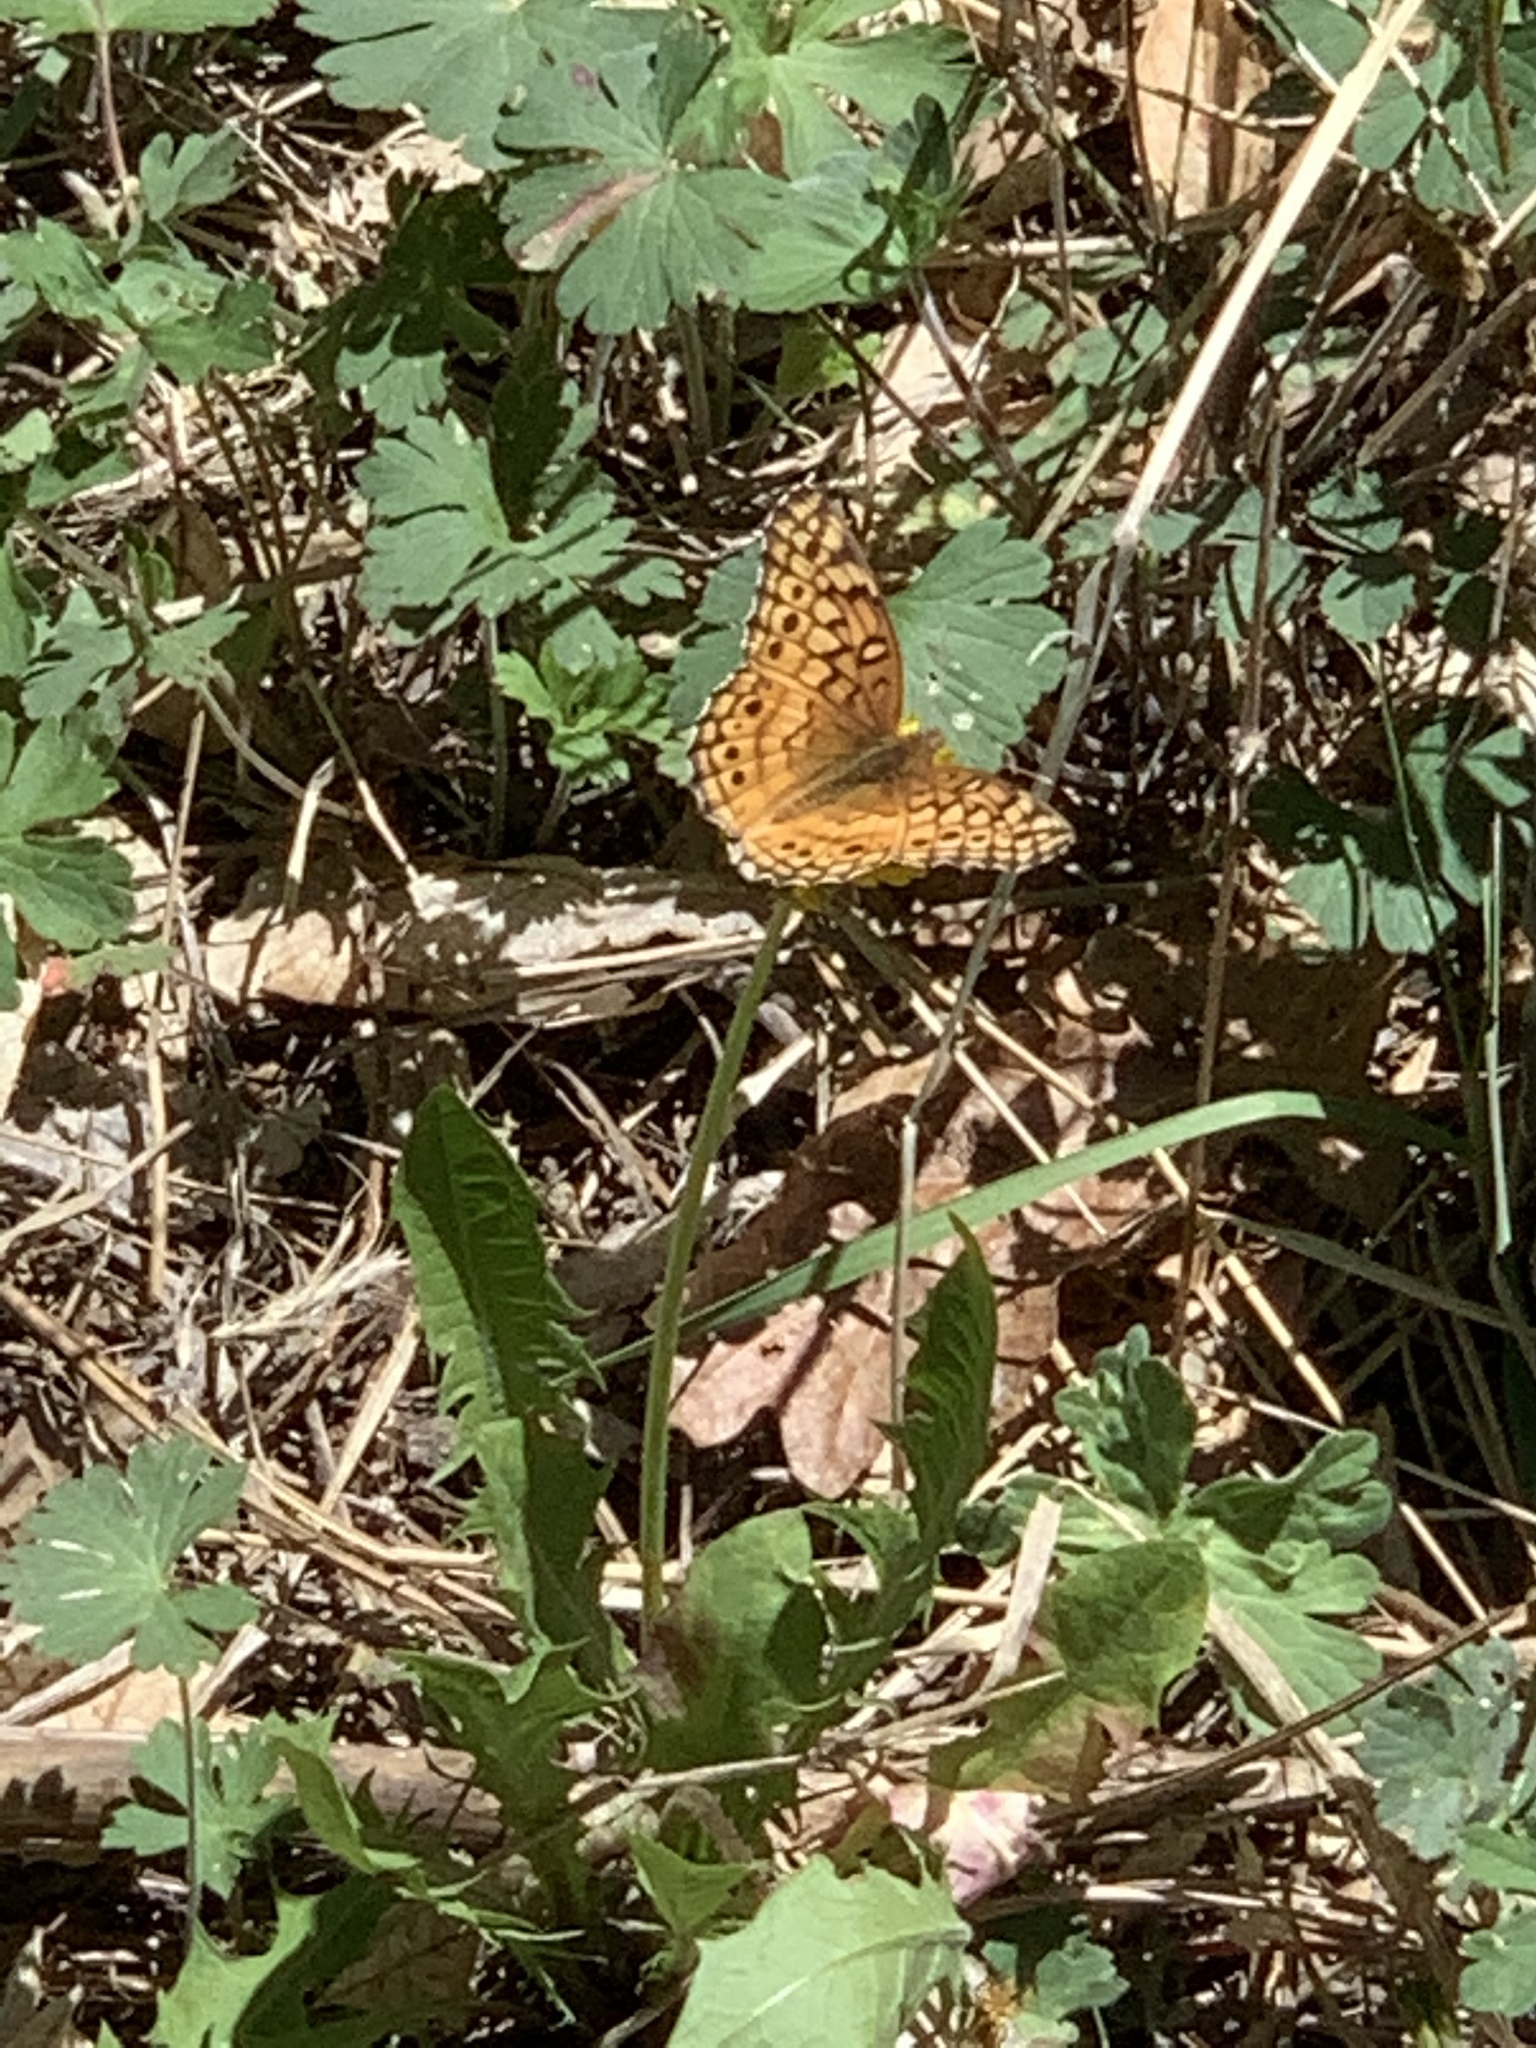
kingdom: Animalia
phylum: Arthropoda
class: Insecta
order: Lepidoptera
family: Nymphalidae
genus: Euptoieta
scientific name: Euptoieta claudia
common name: Variegated fritillary
